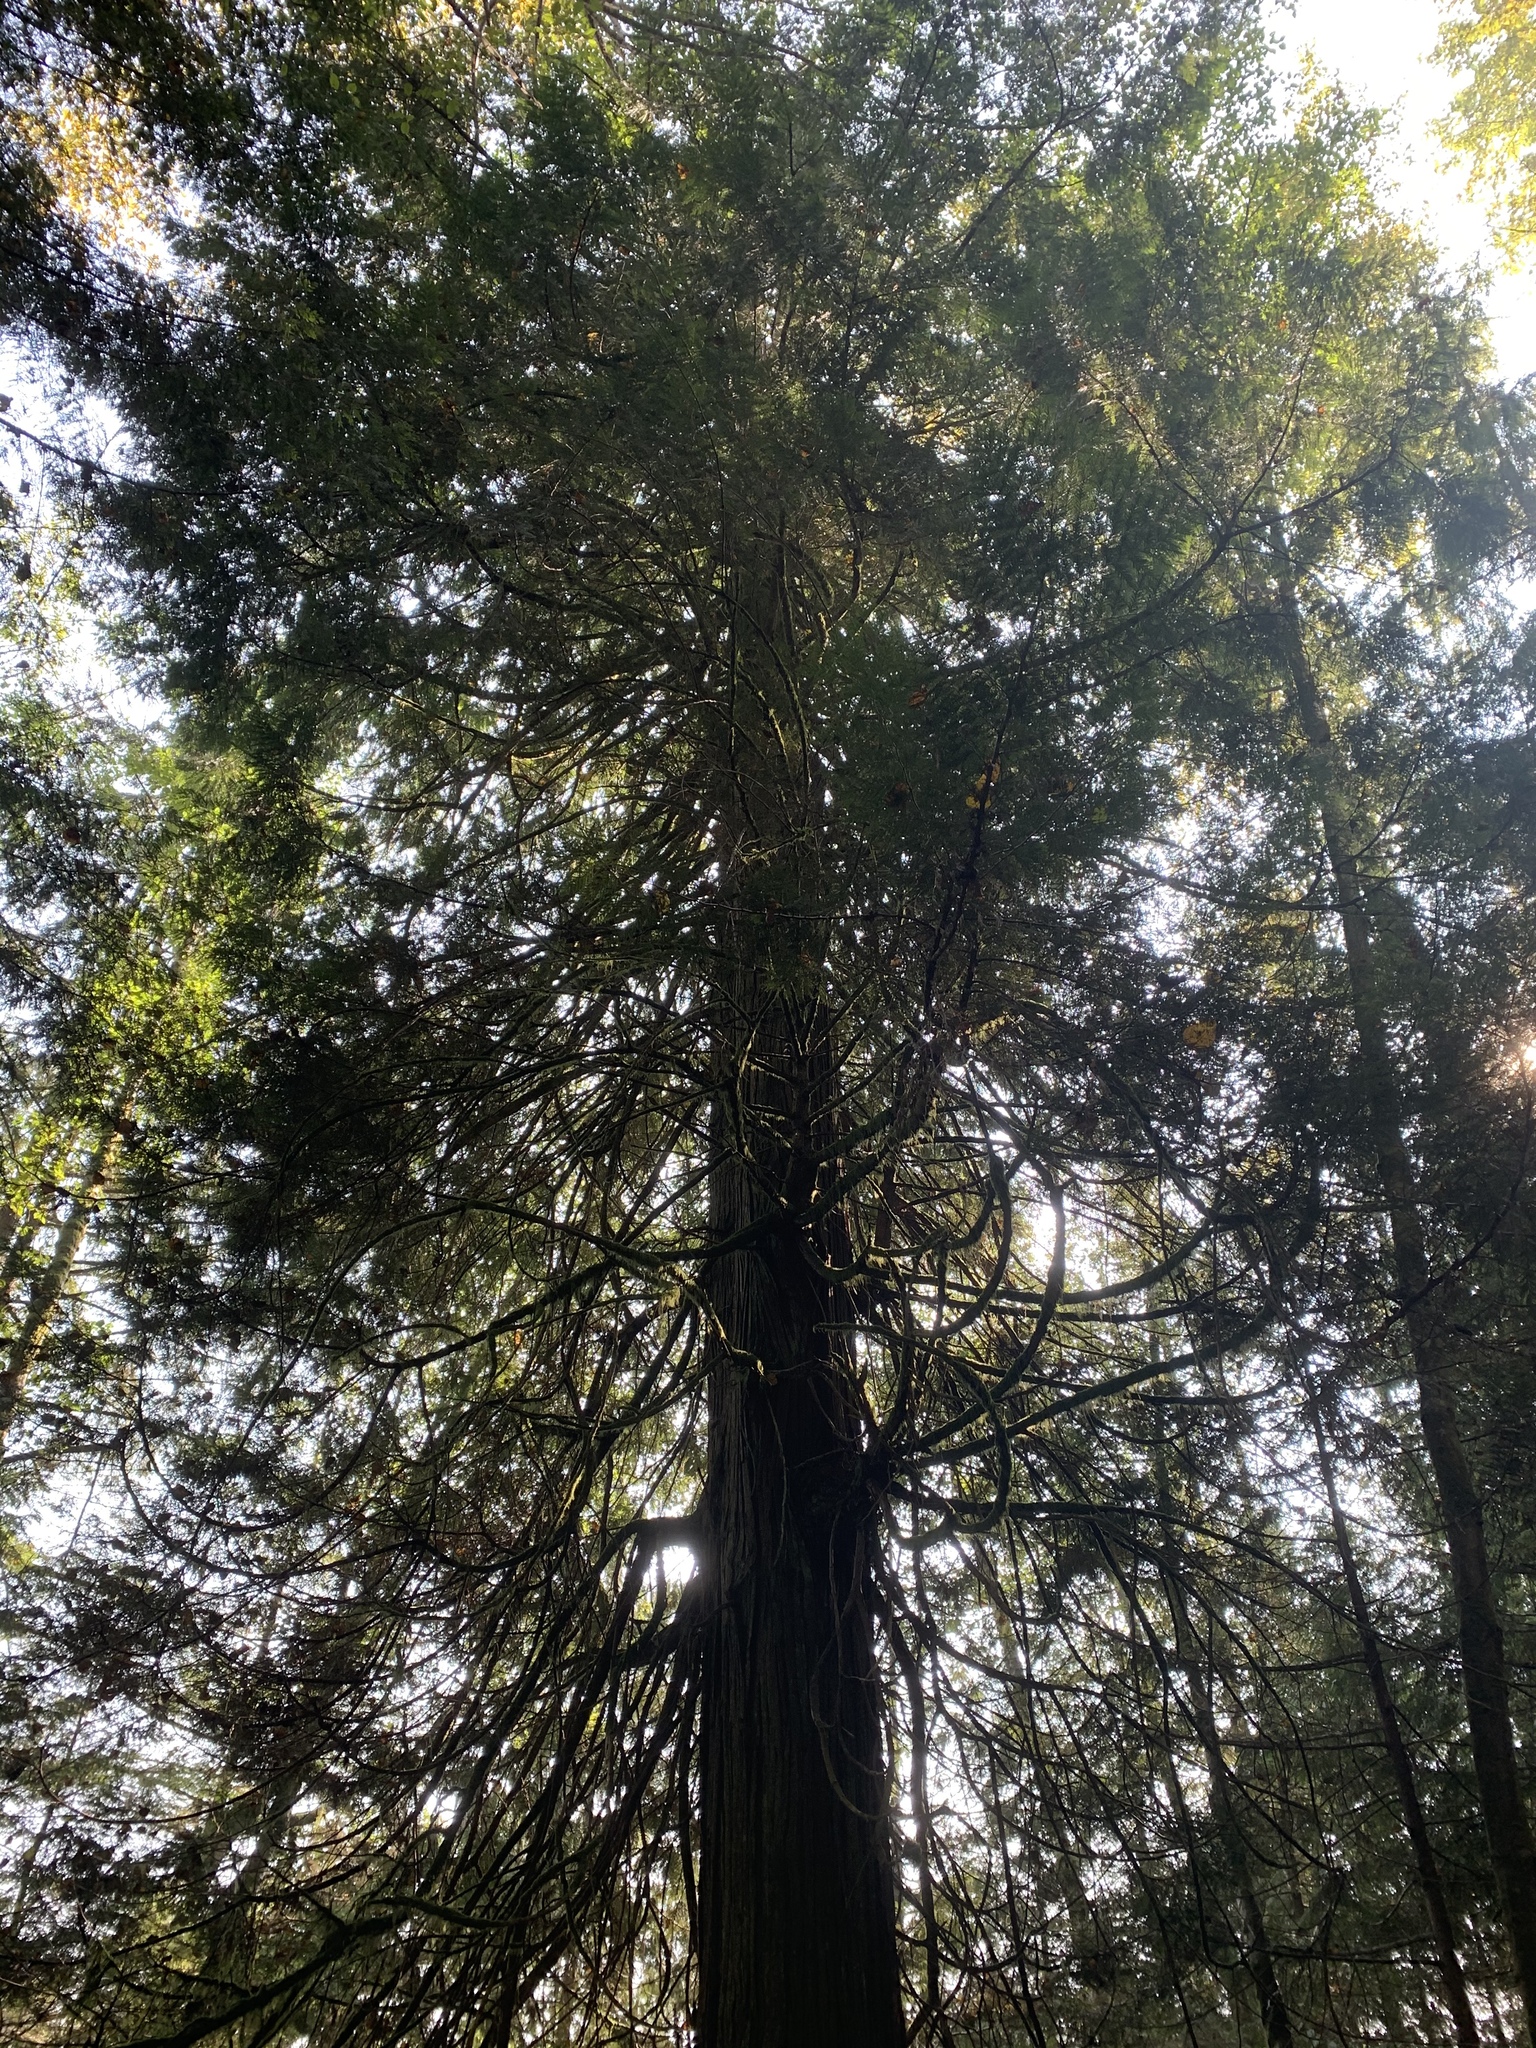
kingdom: Plantae
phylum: Tracheophyta
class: Pinopsida
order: Pinales
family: Cupressaceae
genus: Thuja
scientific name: Thuja plicata
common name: Western red-cedar
